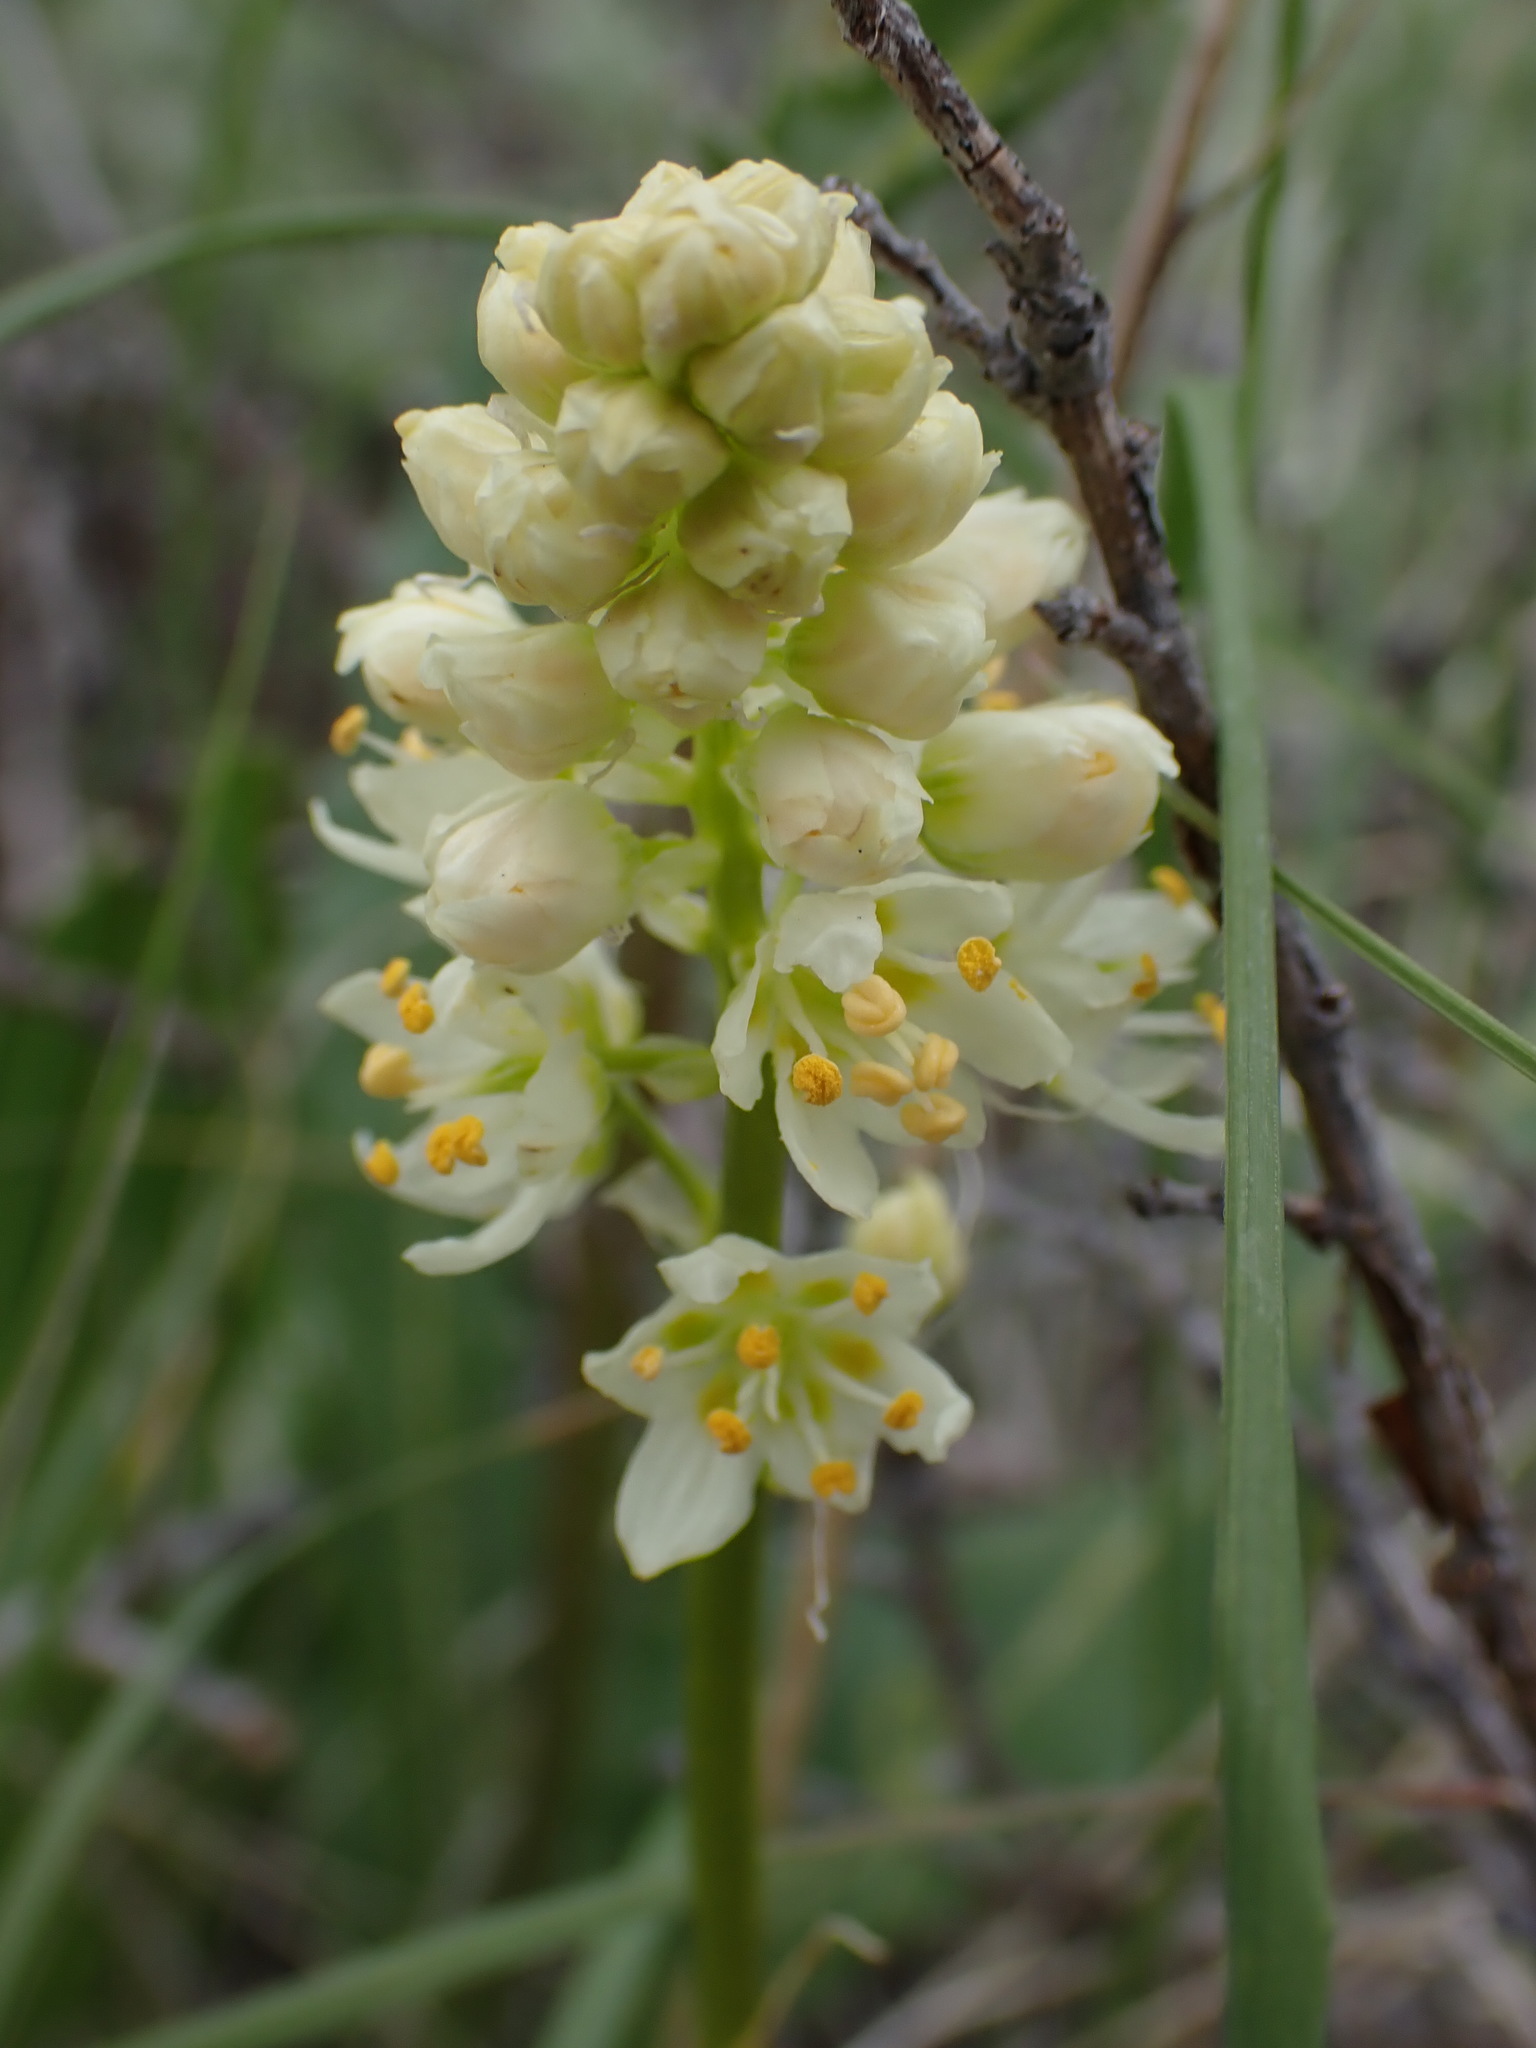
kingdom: Plantae
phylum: Tracheophyta
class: Liliopsida
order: Liliales
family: Melanthiaceae
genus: Toxicoscordion
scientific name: Toxicoscordion venenosum
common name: Meadow death camas
